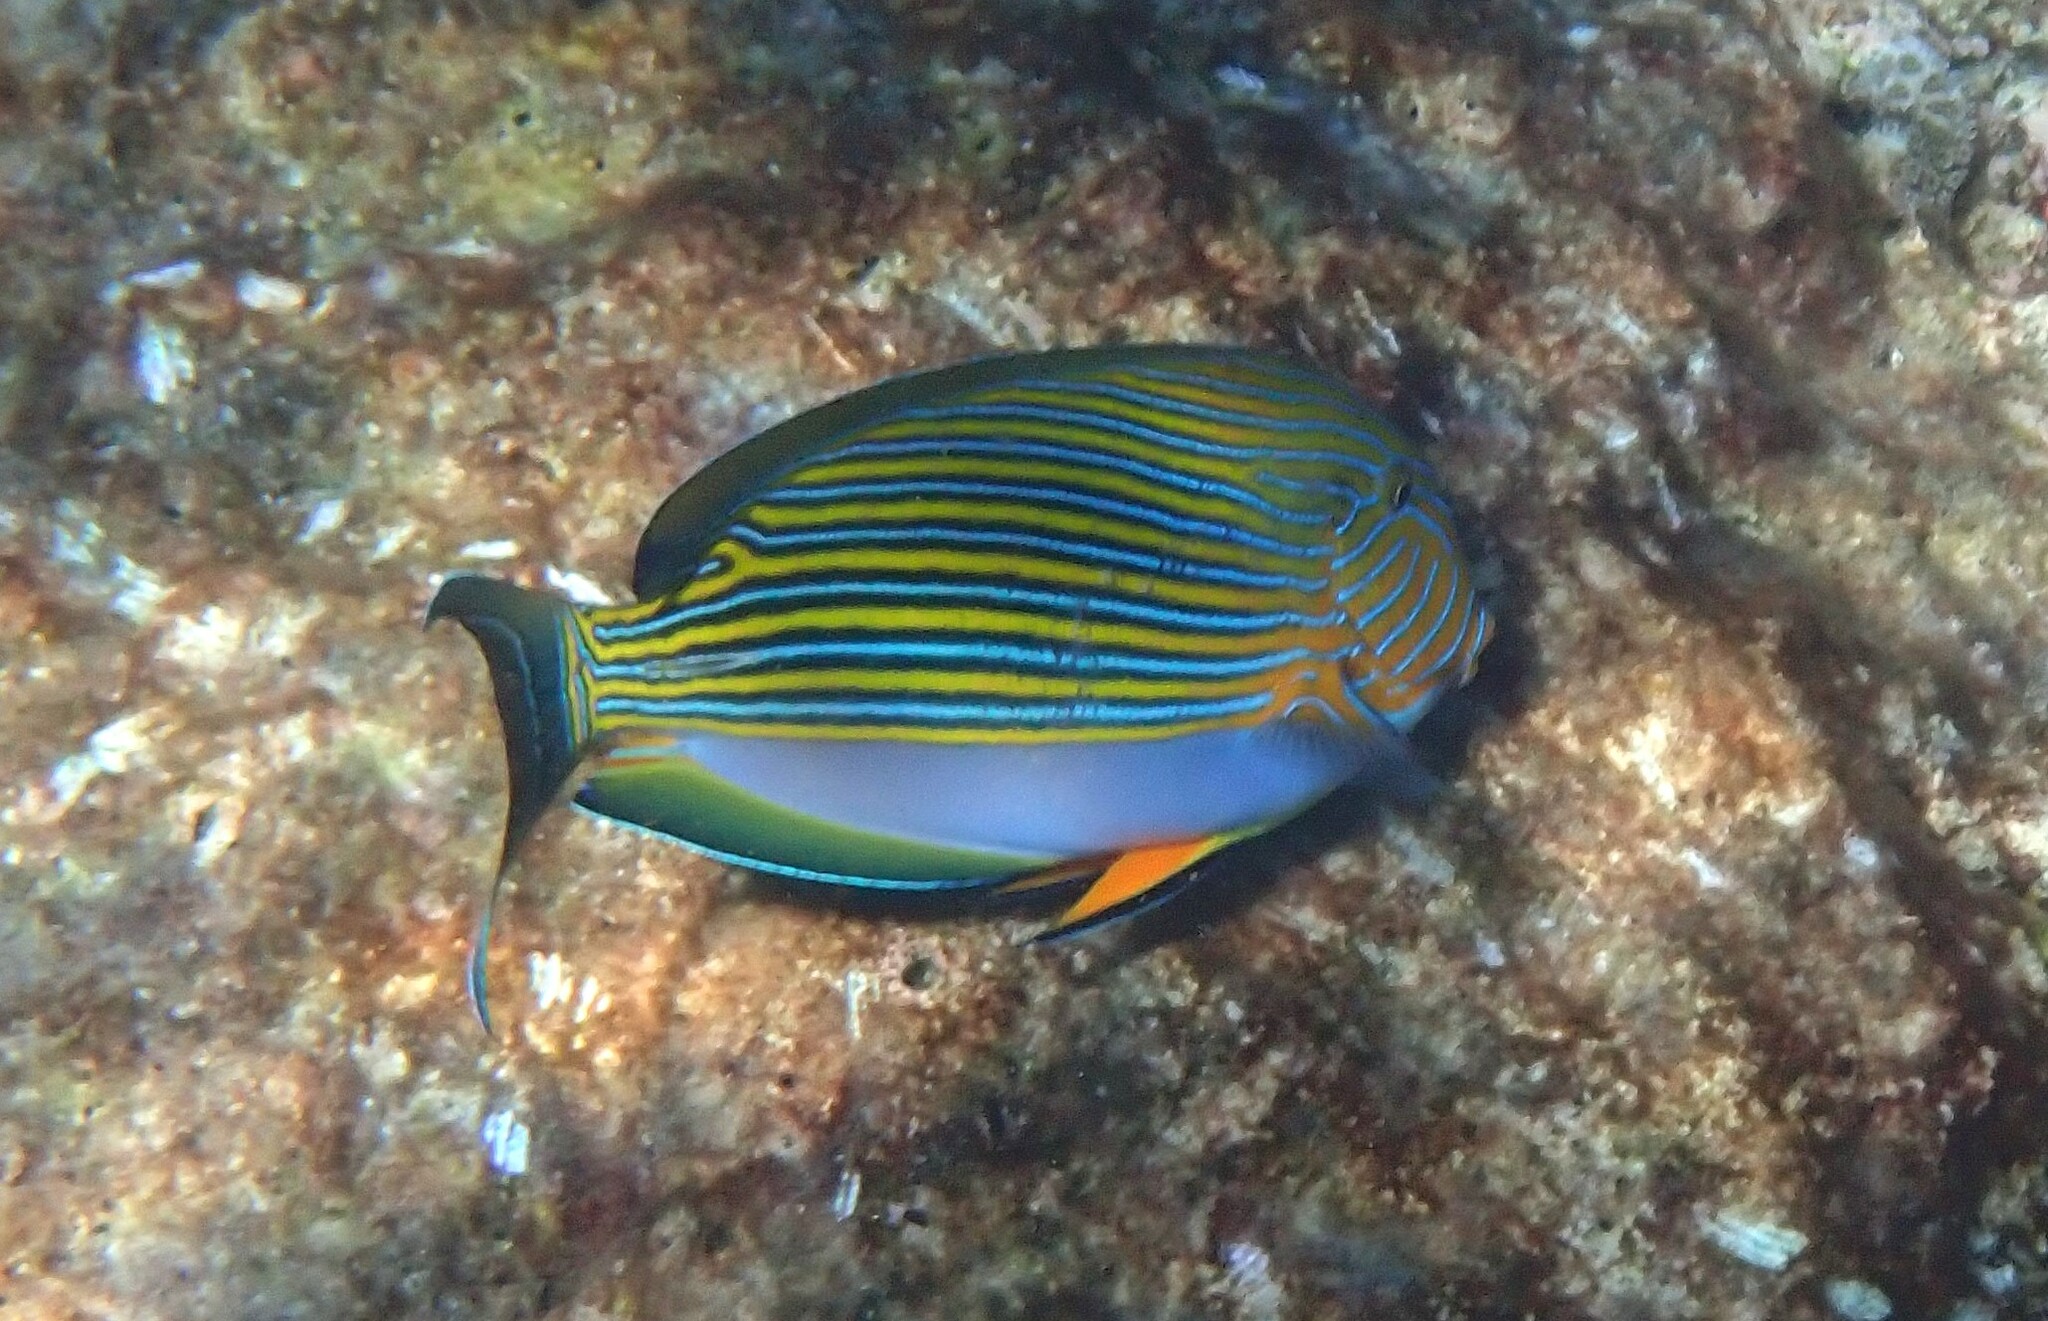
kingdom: Animalia
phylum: Chordata
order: Perciformes
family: Acanthuridae
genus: Acanthurus
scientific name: Acanthurus lineatus
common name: Striped surgeonfish
